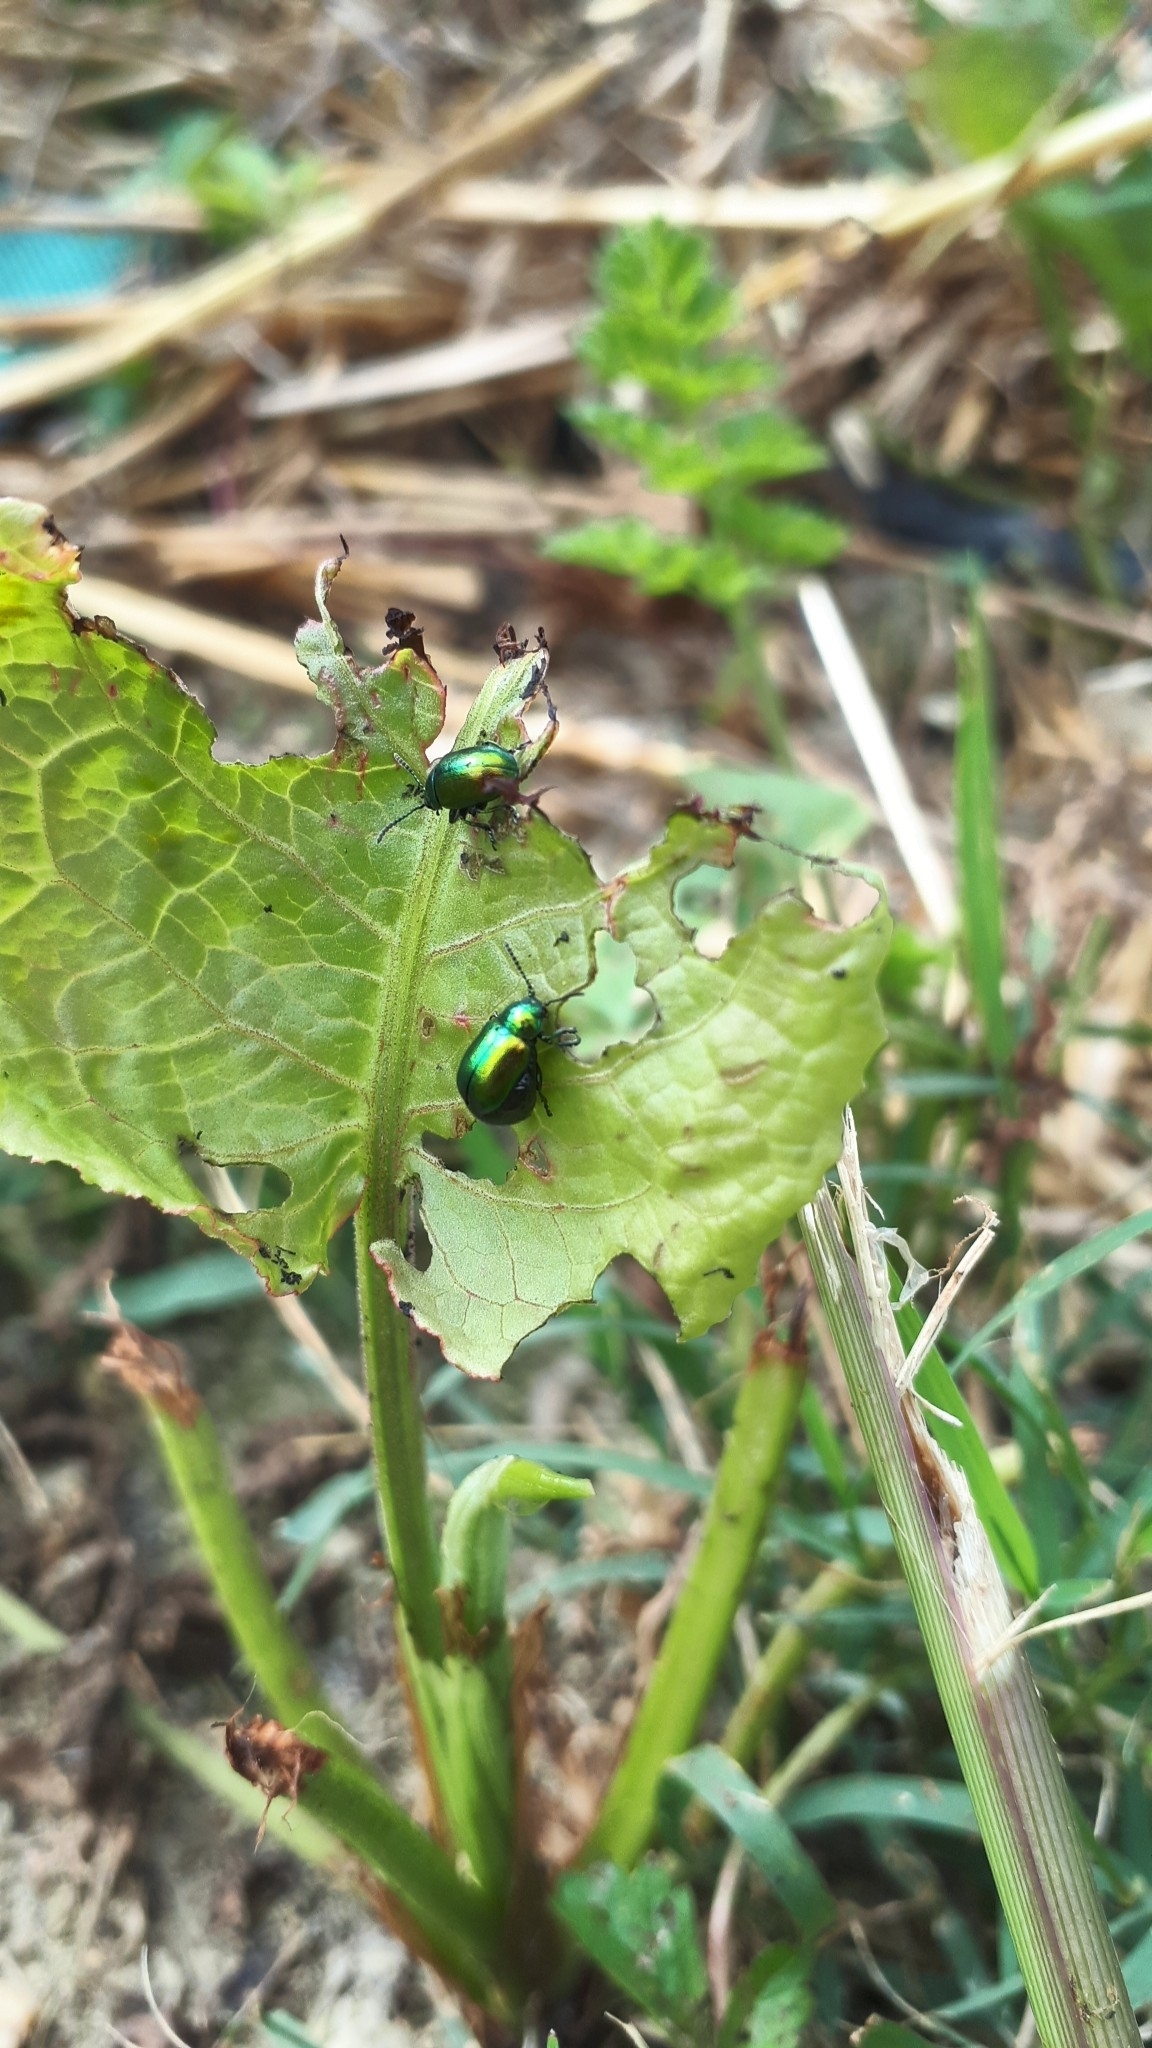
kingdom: Animalia
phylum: Arthropoda
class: Insecta
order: Coleoptera
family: Chrysomelidae
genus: Gastrophysa
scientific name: Gastrophysa viridula
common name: Green dock beetle
